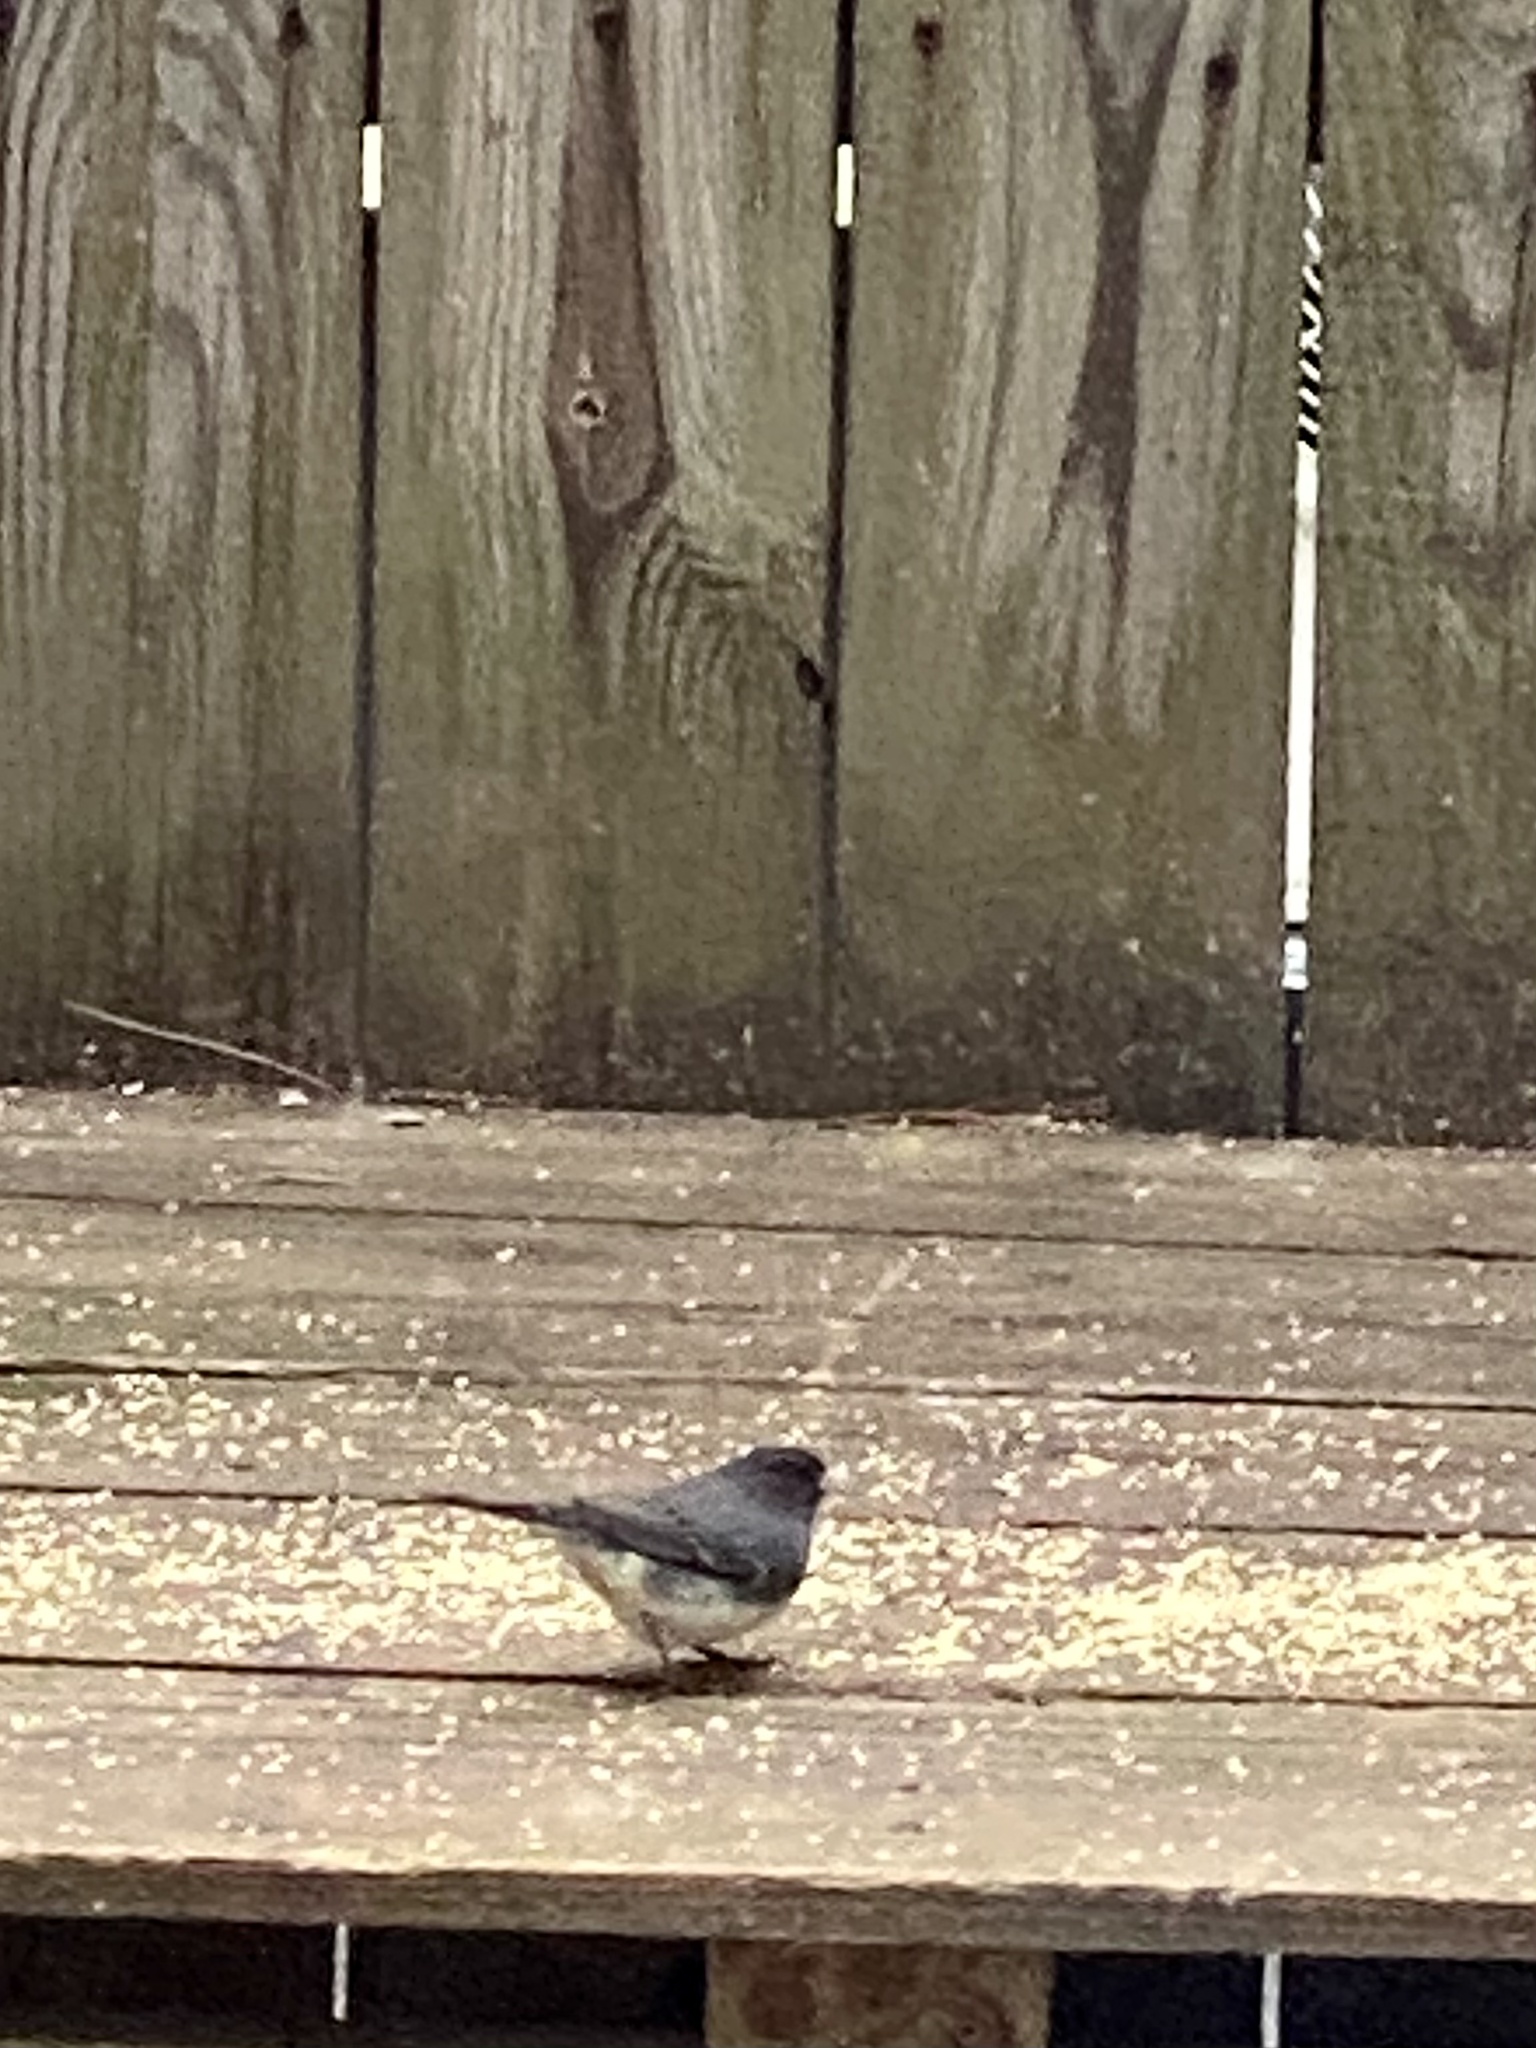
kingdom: Animalia
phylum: Chordata
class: Aves
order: Passeriformes
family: Passerellidae
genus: Junco
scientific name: Junco hyemalis
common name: Dark-eyed junco
